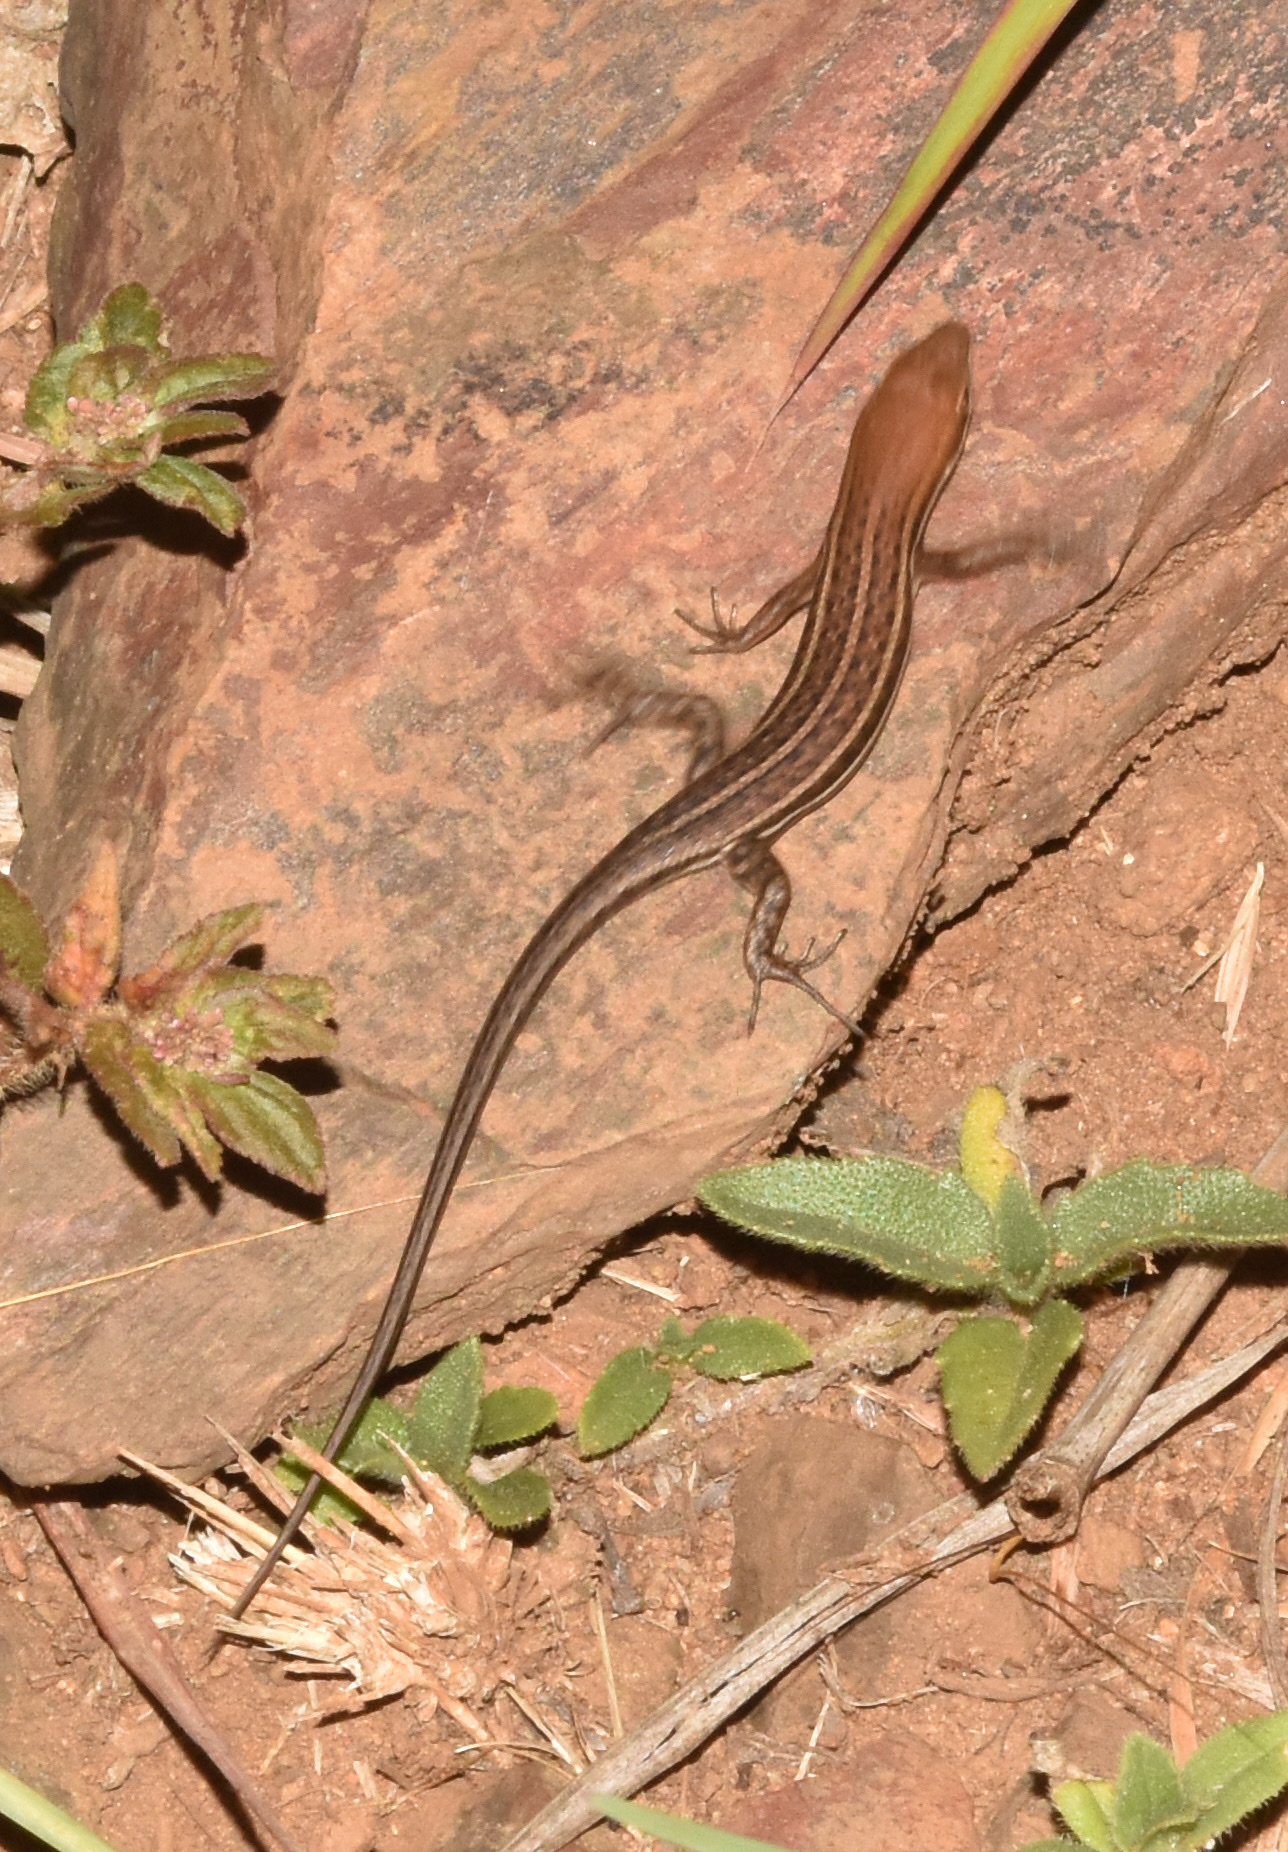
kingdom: Animalia
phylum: Chordata
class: Squamata
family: Scincidae
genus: Trachylepis
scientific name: Trachylepis varia
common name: Eastern variable skink
